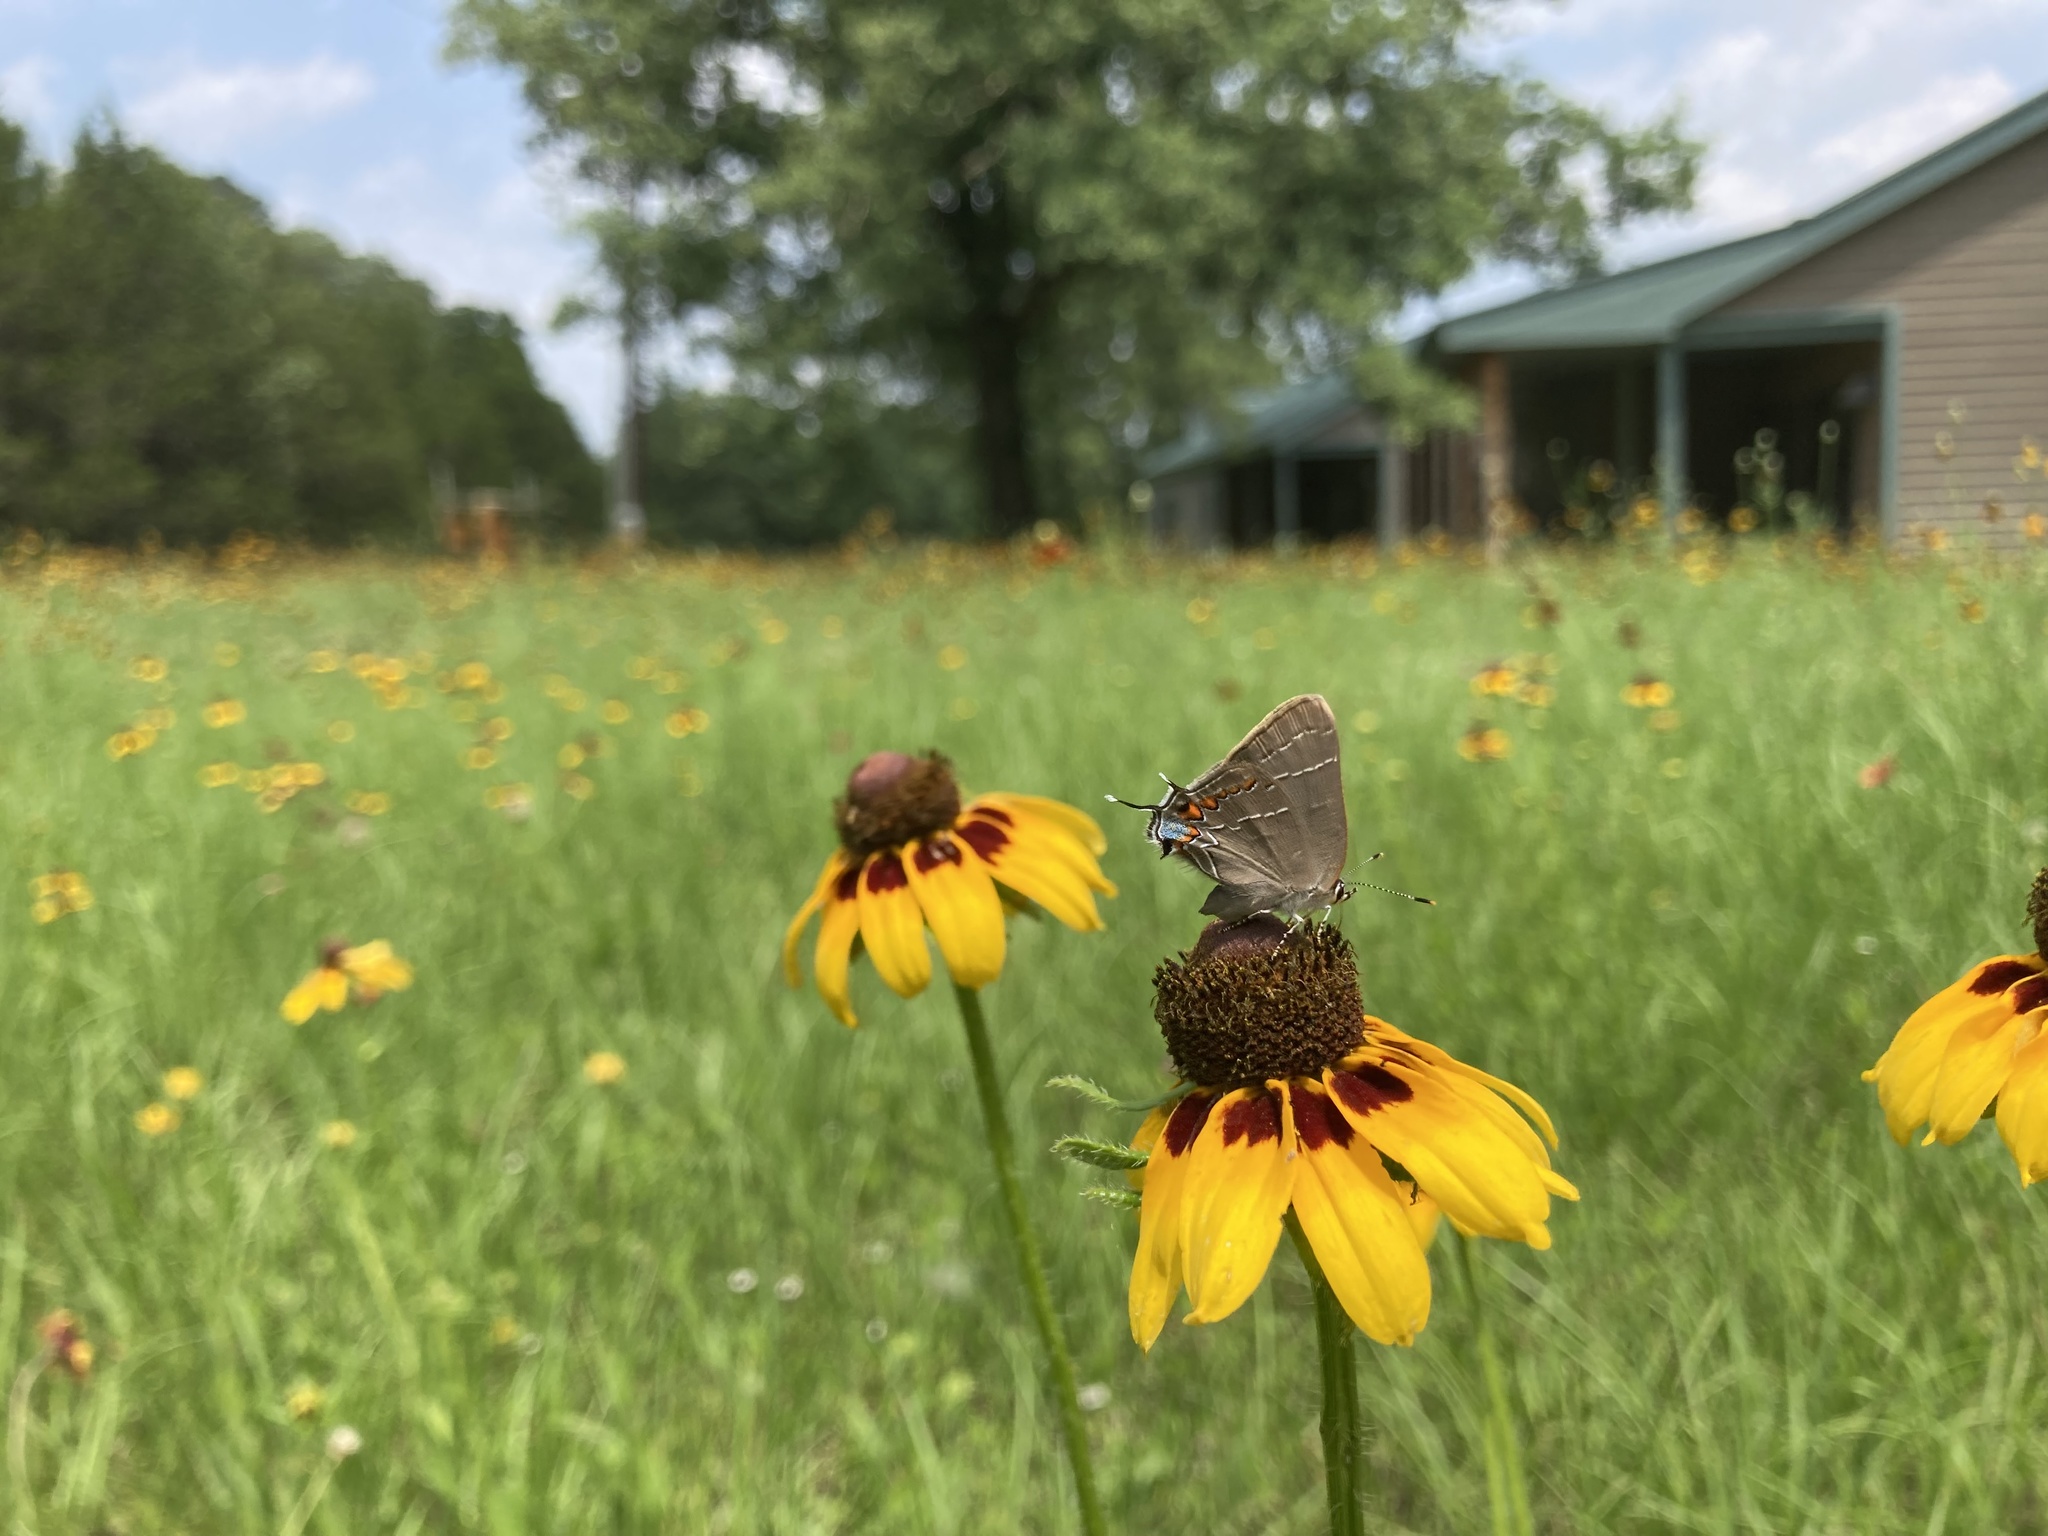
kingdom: Animalia
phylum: Arthropoda
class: Insecta
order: Lepidoptera
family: Lycaenidae
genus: Fixsenia
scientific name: Fixsenia favonius
